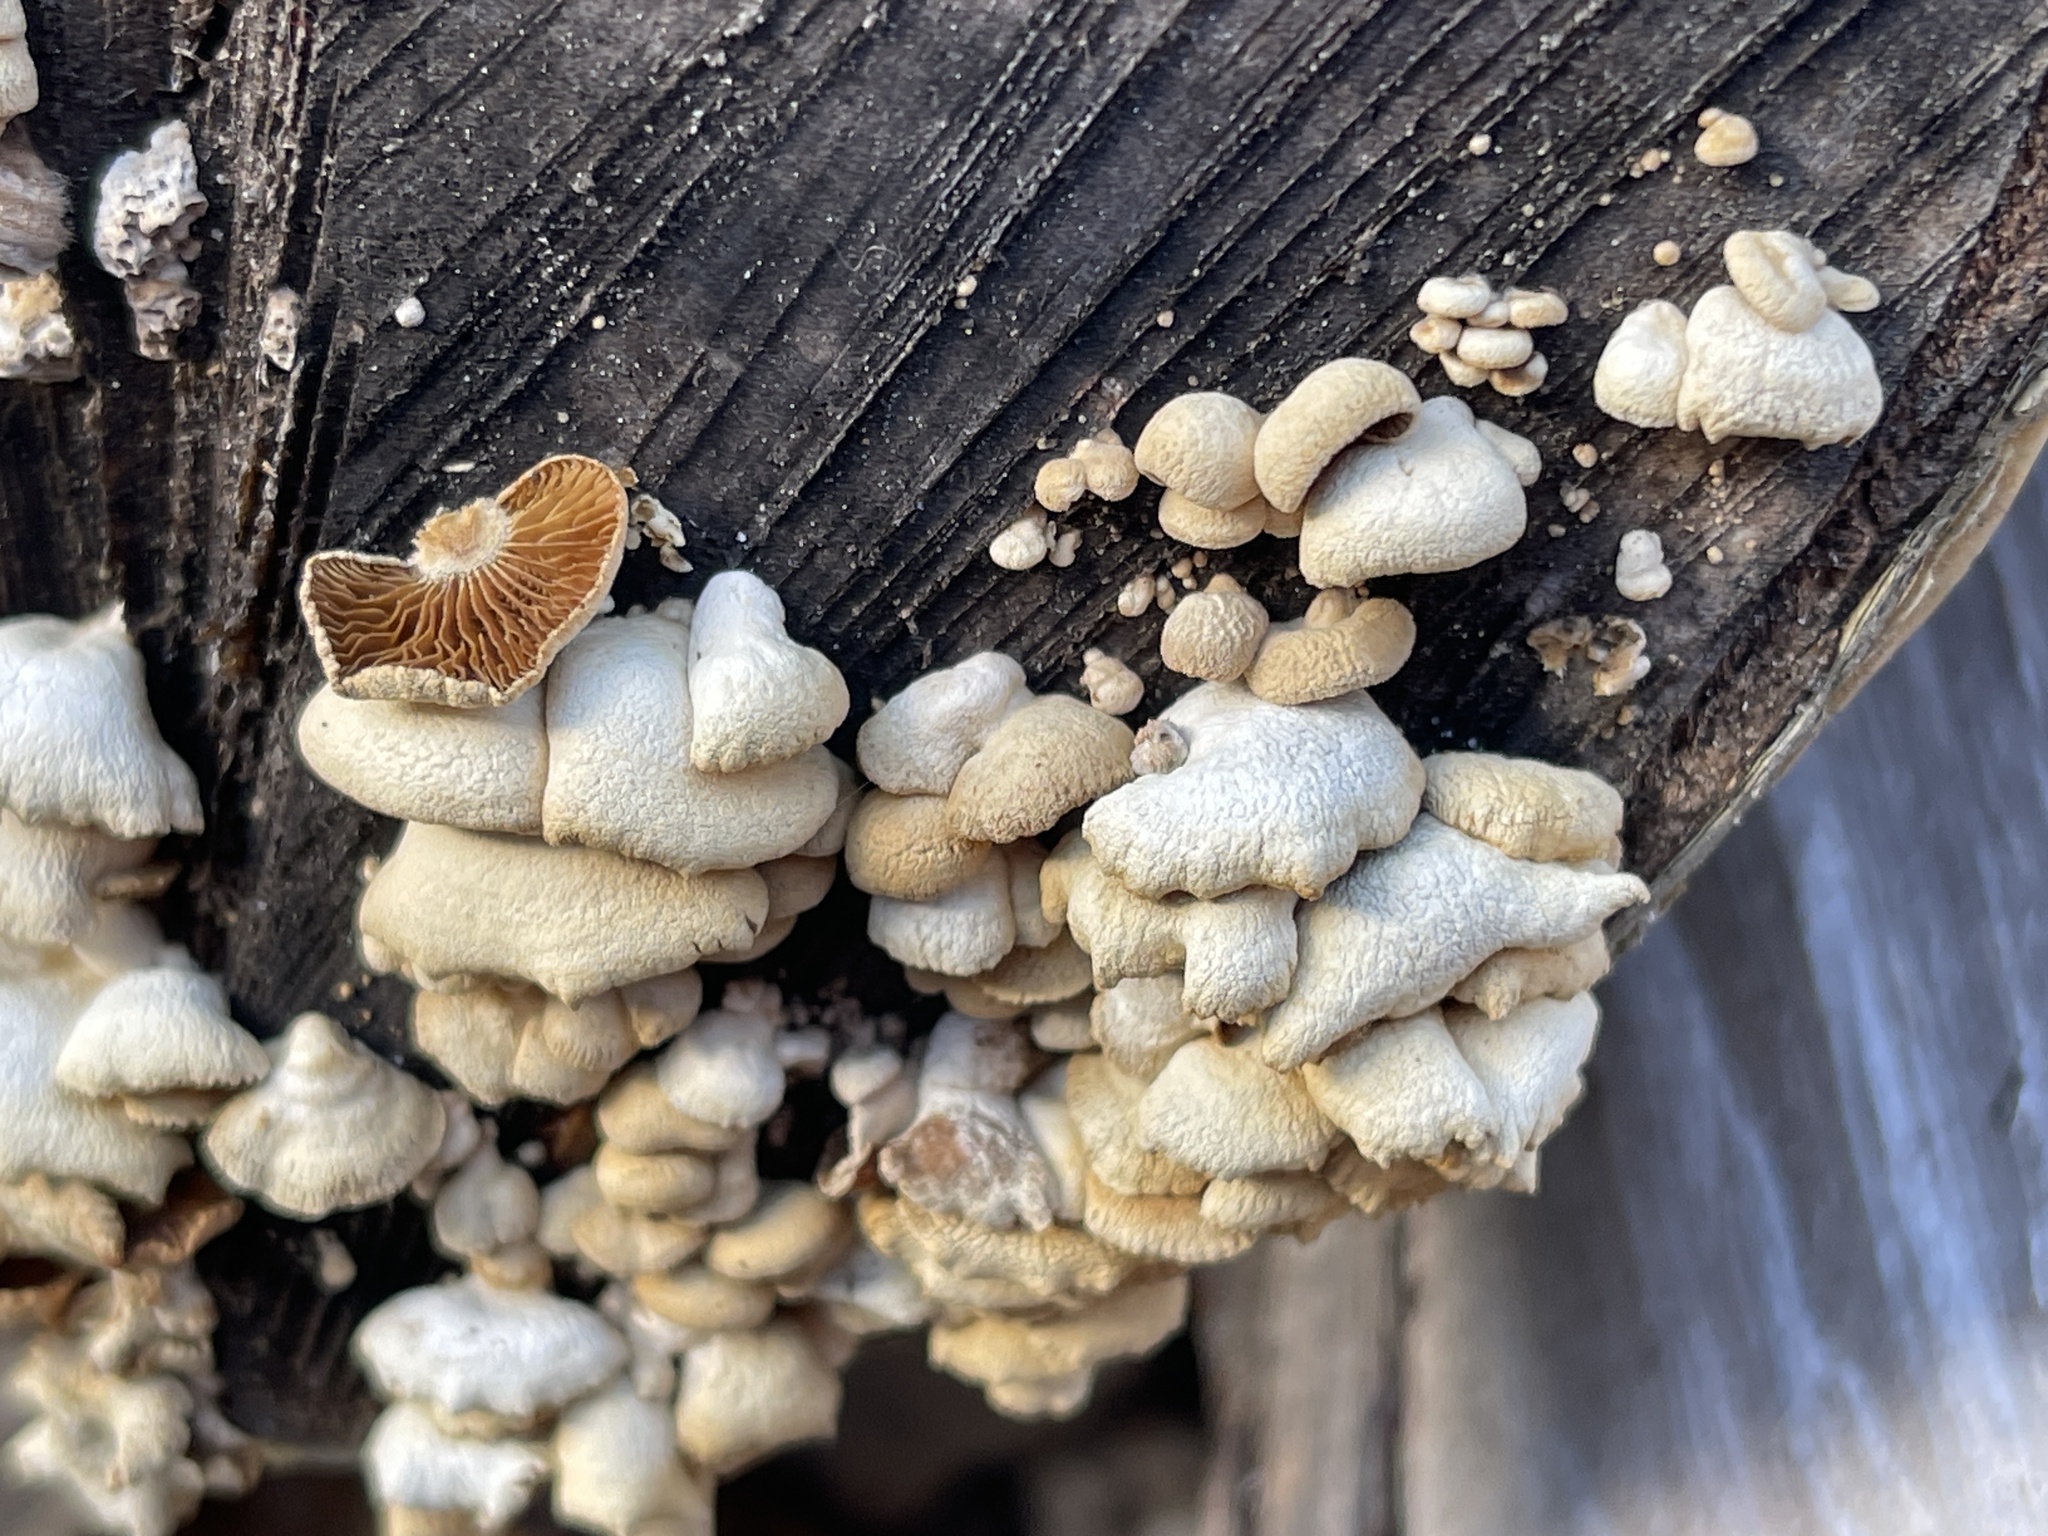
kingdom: Fungi
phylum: Basidiomycota
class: Agaricomycetes
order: Agaricales
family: Mycenaceae
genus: Panellus
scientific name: Panellus stipticus
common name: Bitter oysterling
